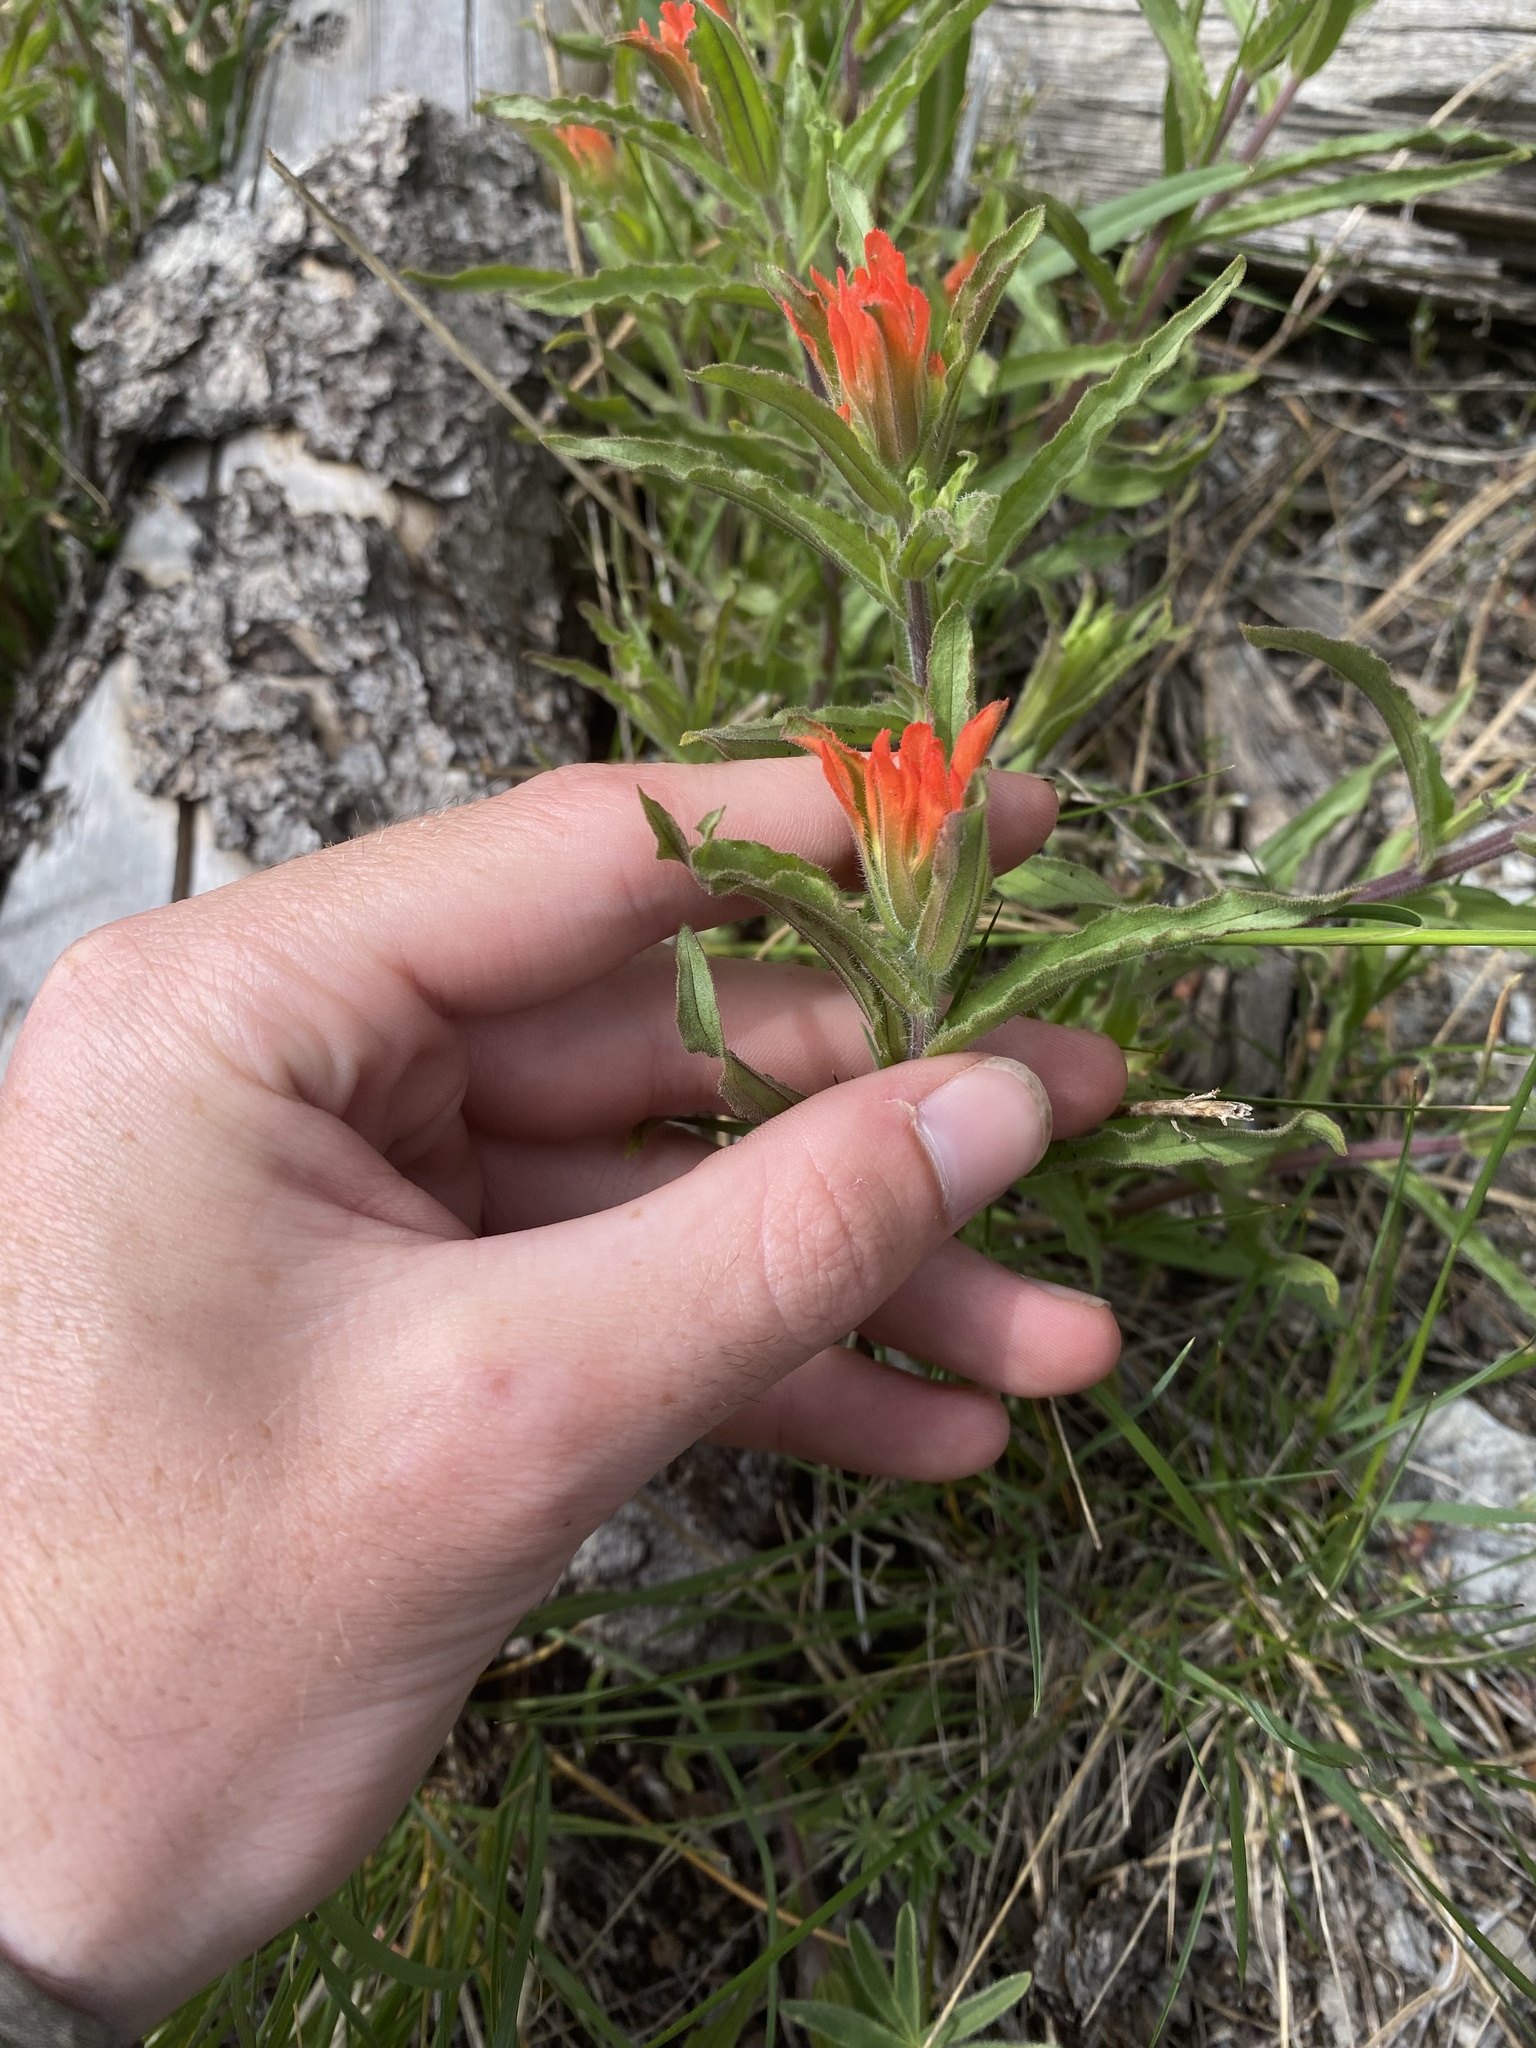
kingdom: Plantae
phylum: Tracheophyta
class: Magnoliopsida
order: Lamiales
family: Orobanchaceae
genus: Castilleja
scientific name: Castilleja applegatei
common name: Wavy-leaf paintbrush
